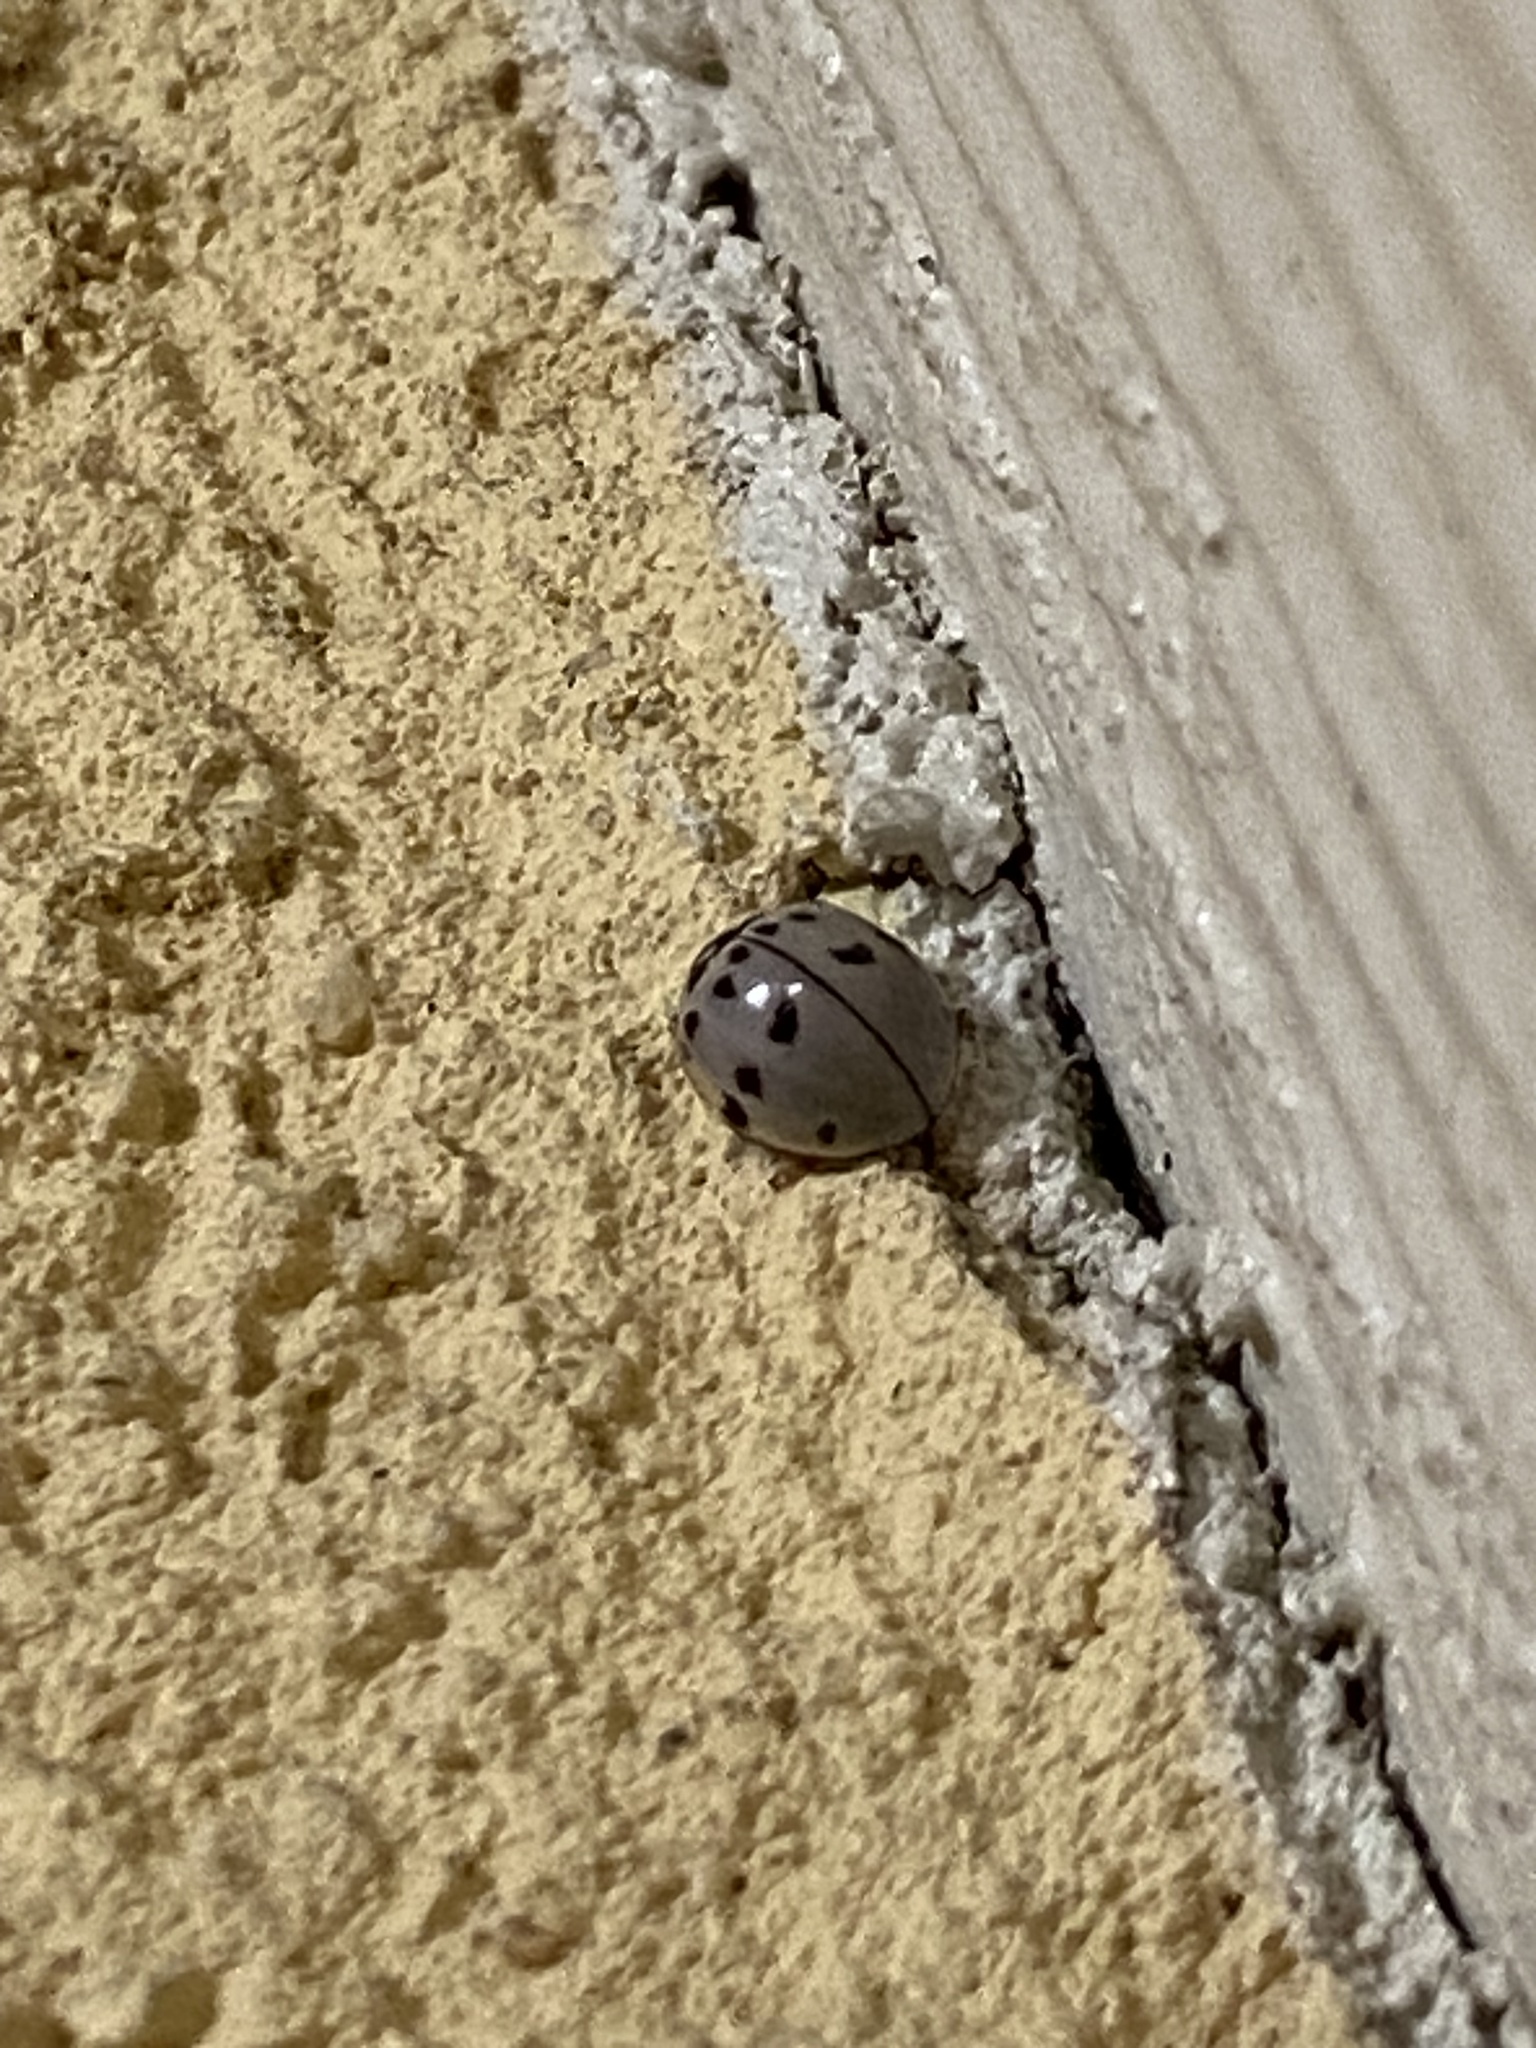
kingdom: Animalia
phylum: Arthropoda
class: Insecta
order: Coleoptera
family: Coccinellidae
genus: Olla
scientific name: Olla v-nigrum
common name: Ashy gray lady beetle
